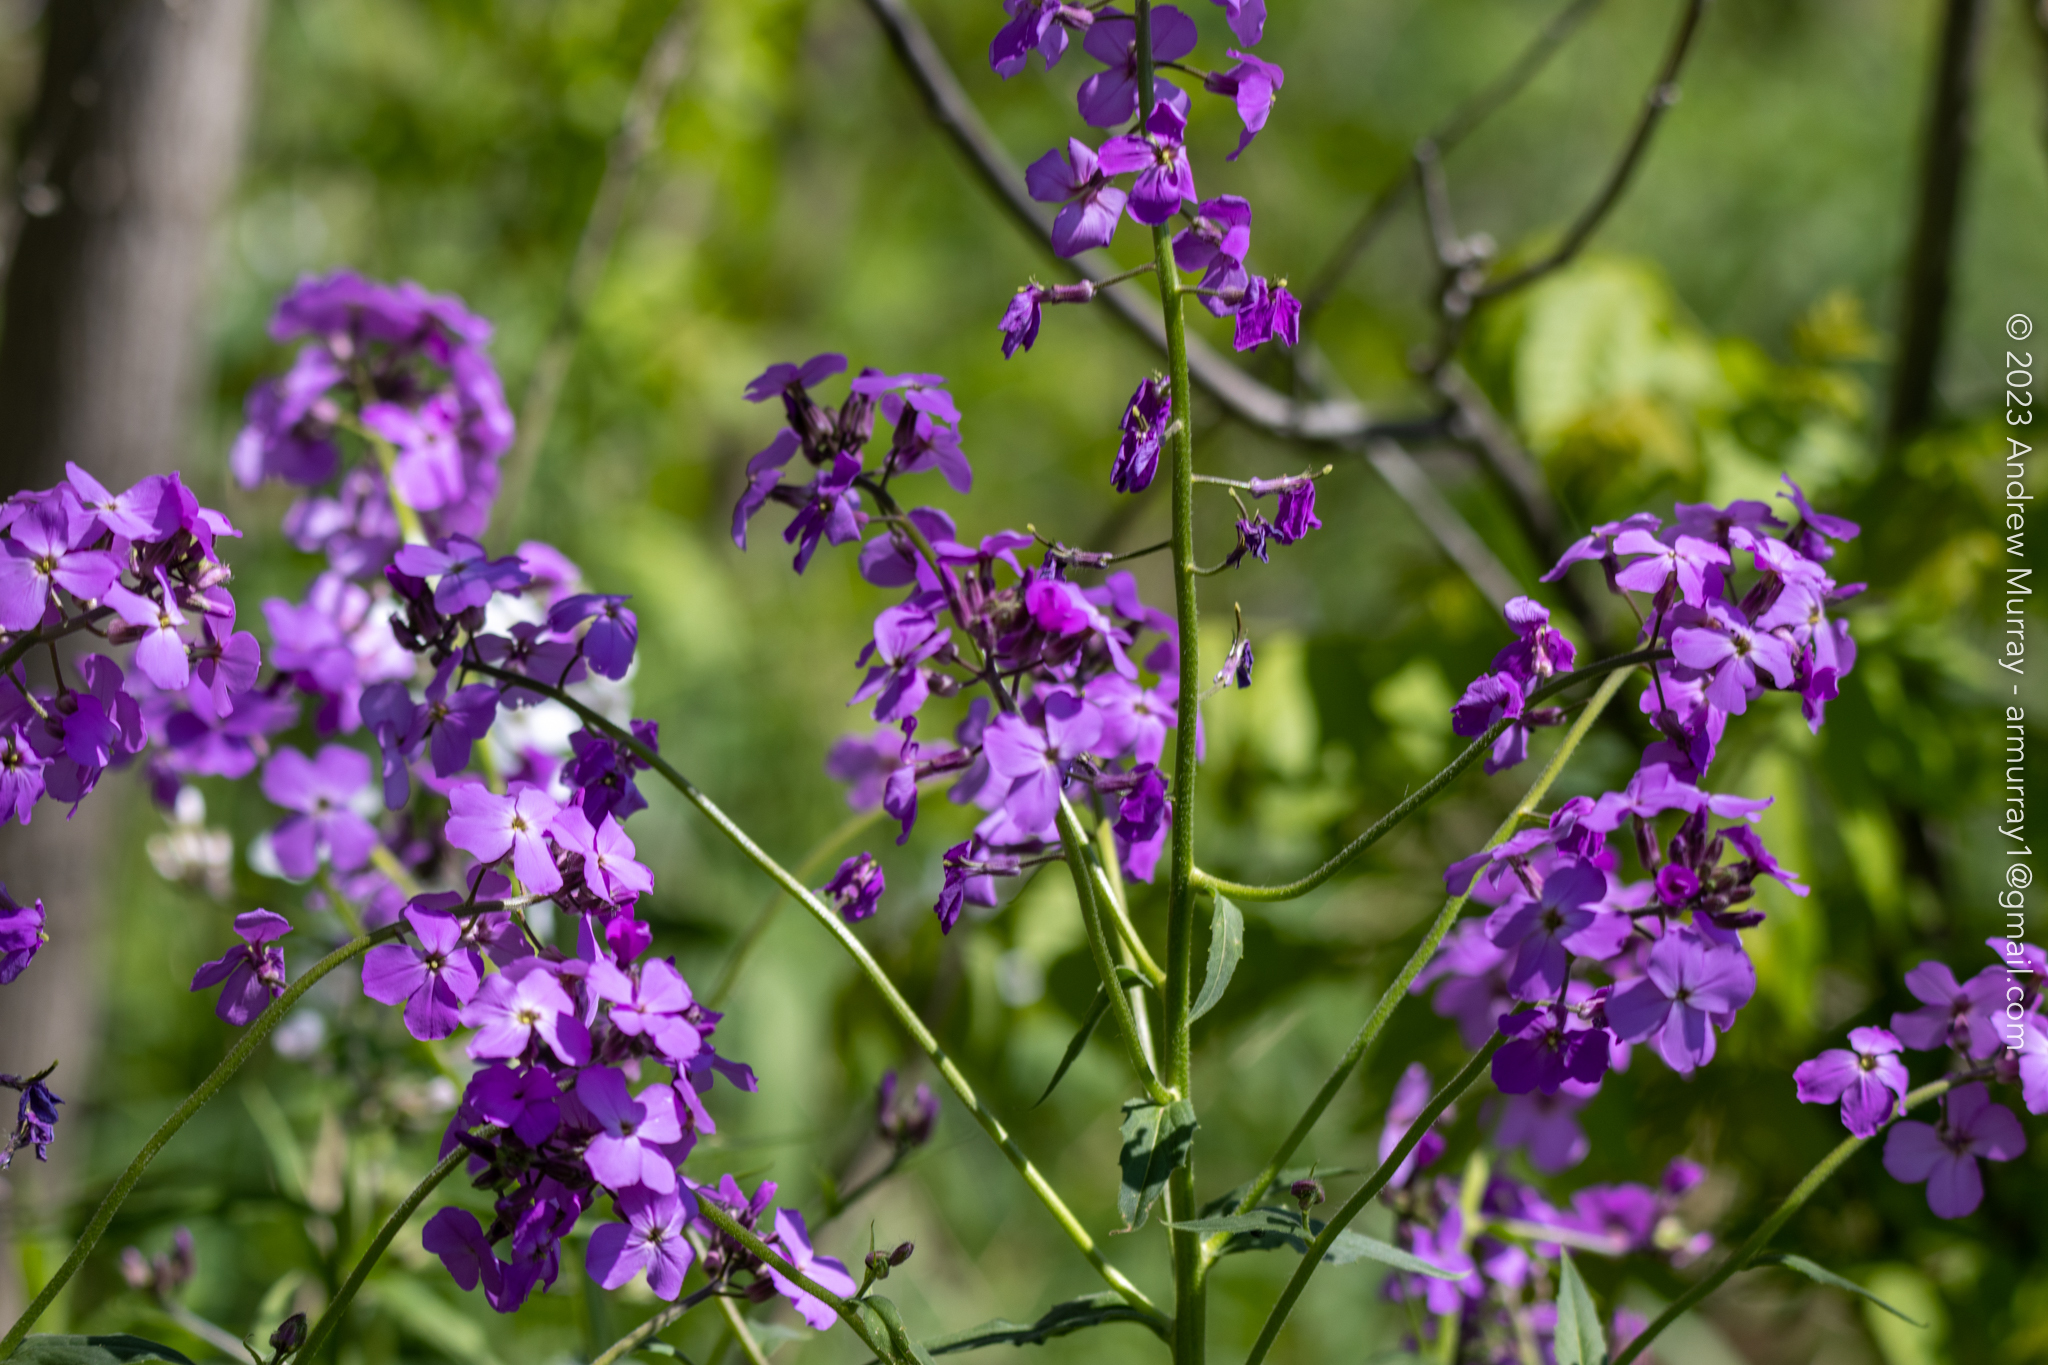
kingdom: Plantae
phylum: Tracheophyta
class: Magnoliopsida
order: Brassicales
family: Brassicaceae
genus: Hesperis
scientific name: Hesperis matronalis
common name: Dame's-violet
